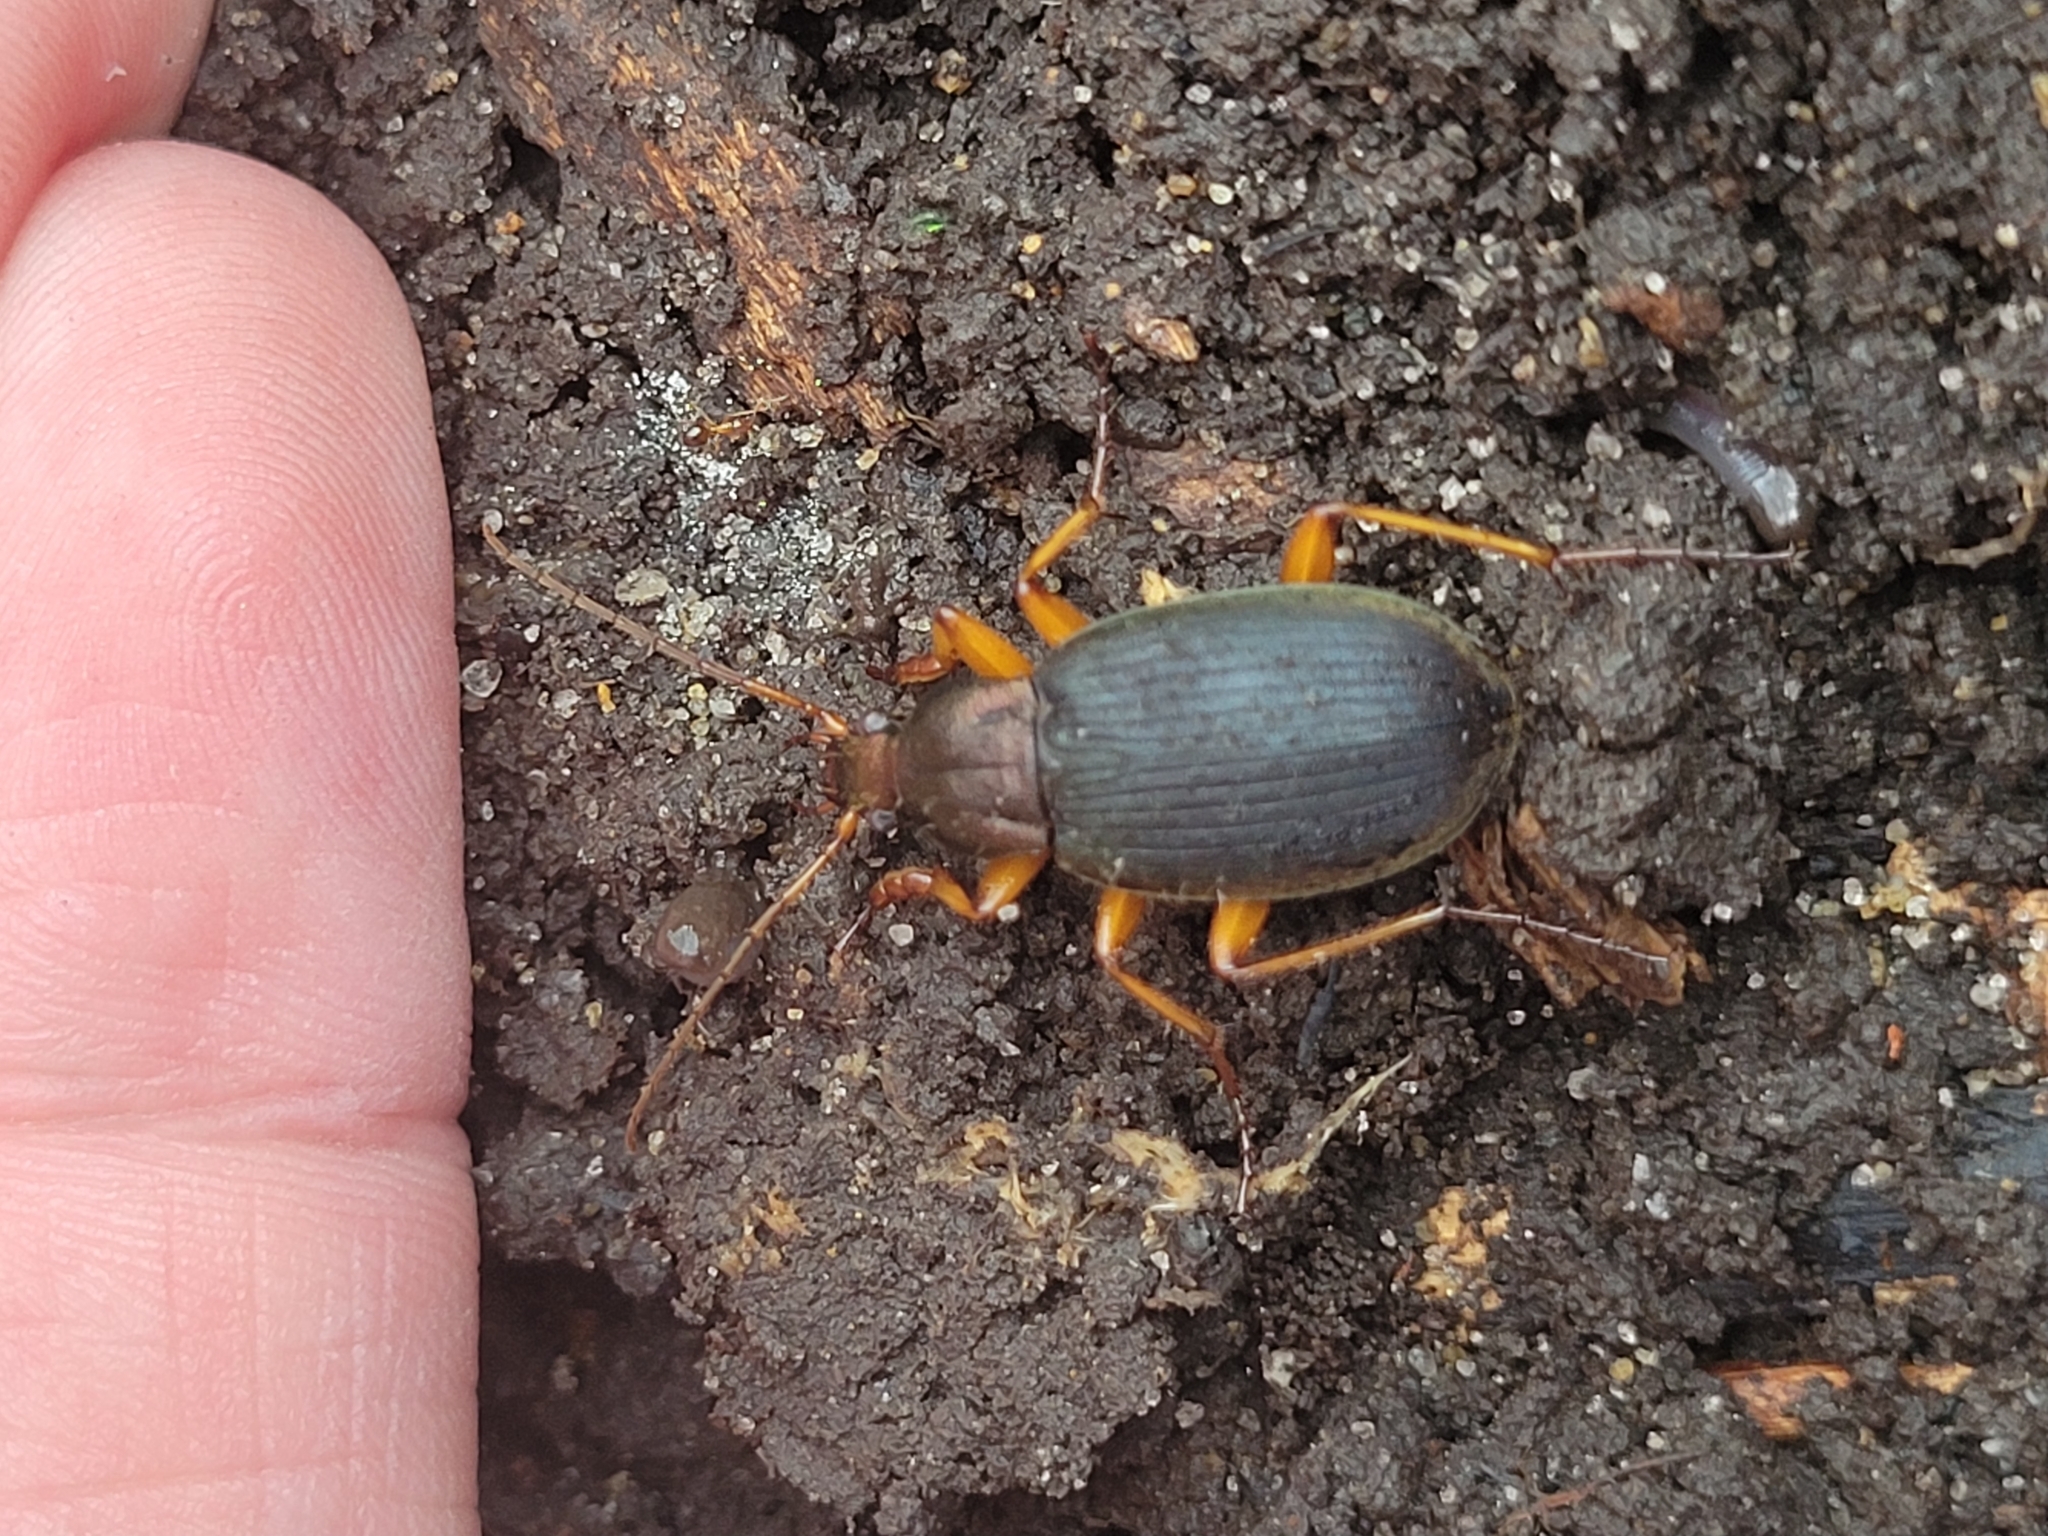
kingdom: Animalia
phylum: Arthropoda
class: Insecta
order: Coleoptera
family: Carabidae
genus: Chlaenius
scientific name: Chlaenius aestivus
